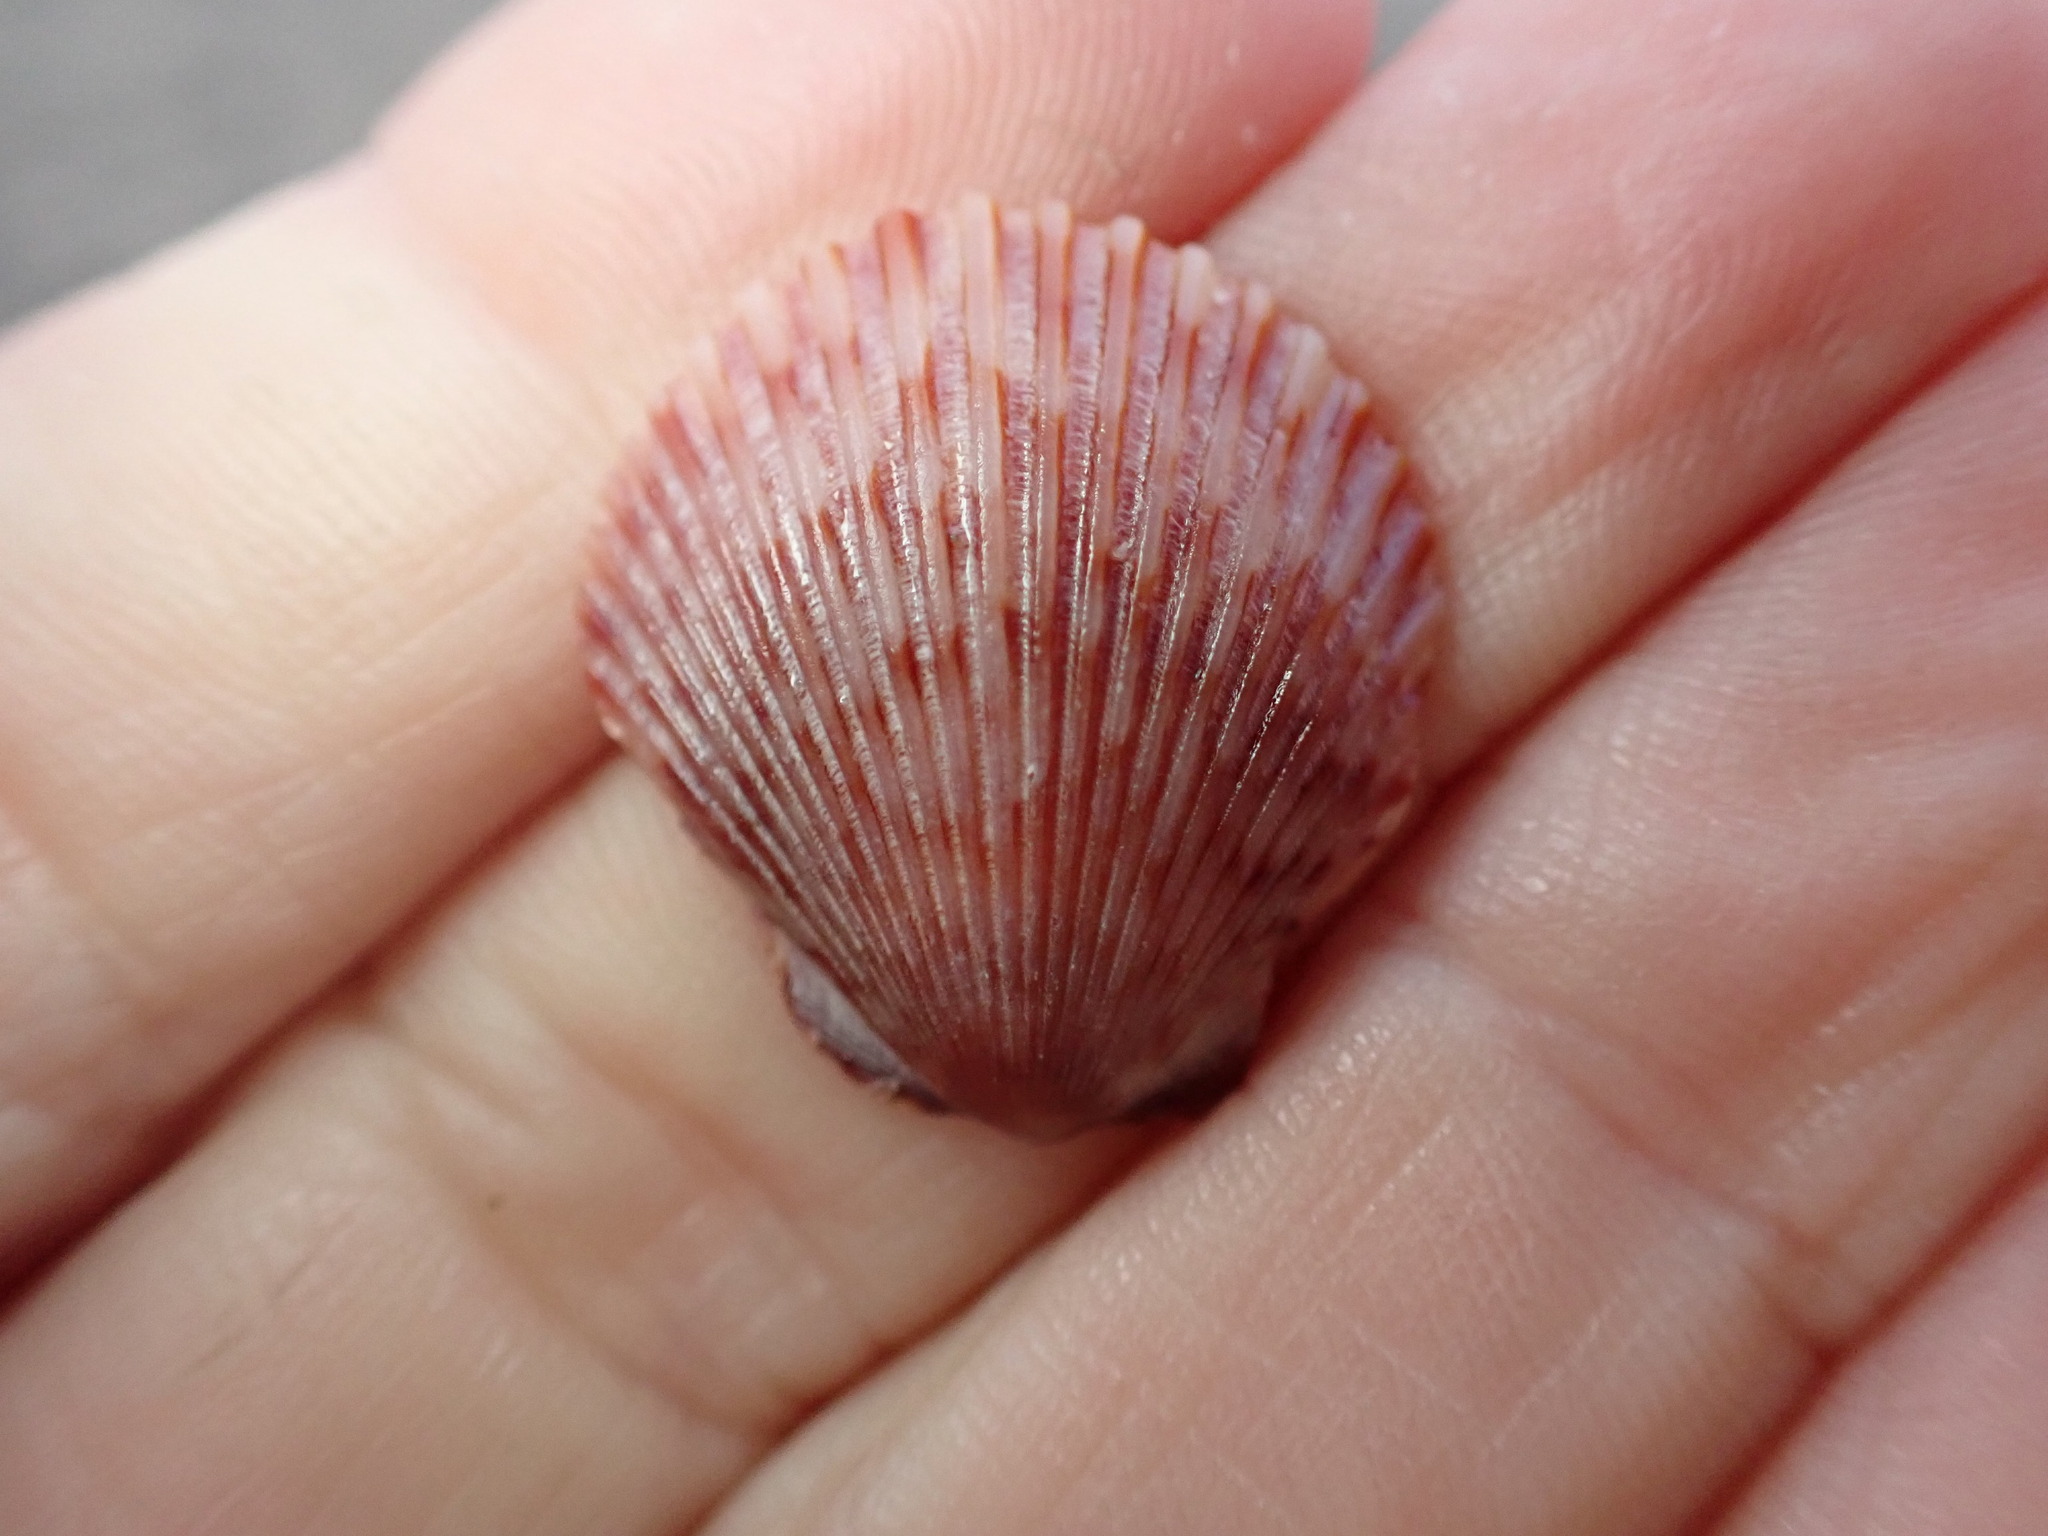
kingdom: Animalia
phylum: Mollusca
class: Bivalvia
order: Pectinida
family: Pectinidae
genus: Argopecten
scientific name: Argopecten ventricosus
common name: Catarina scallop
